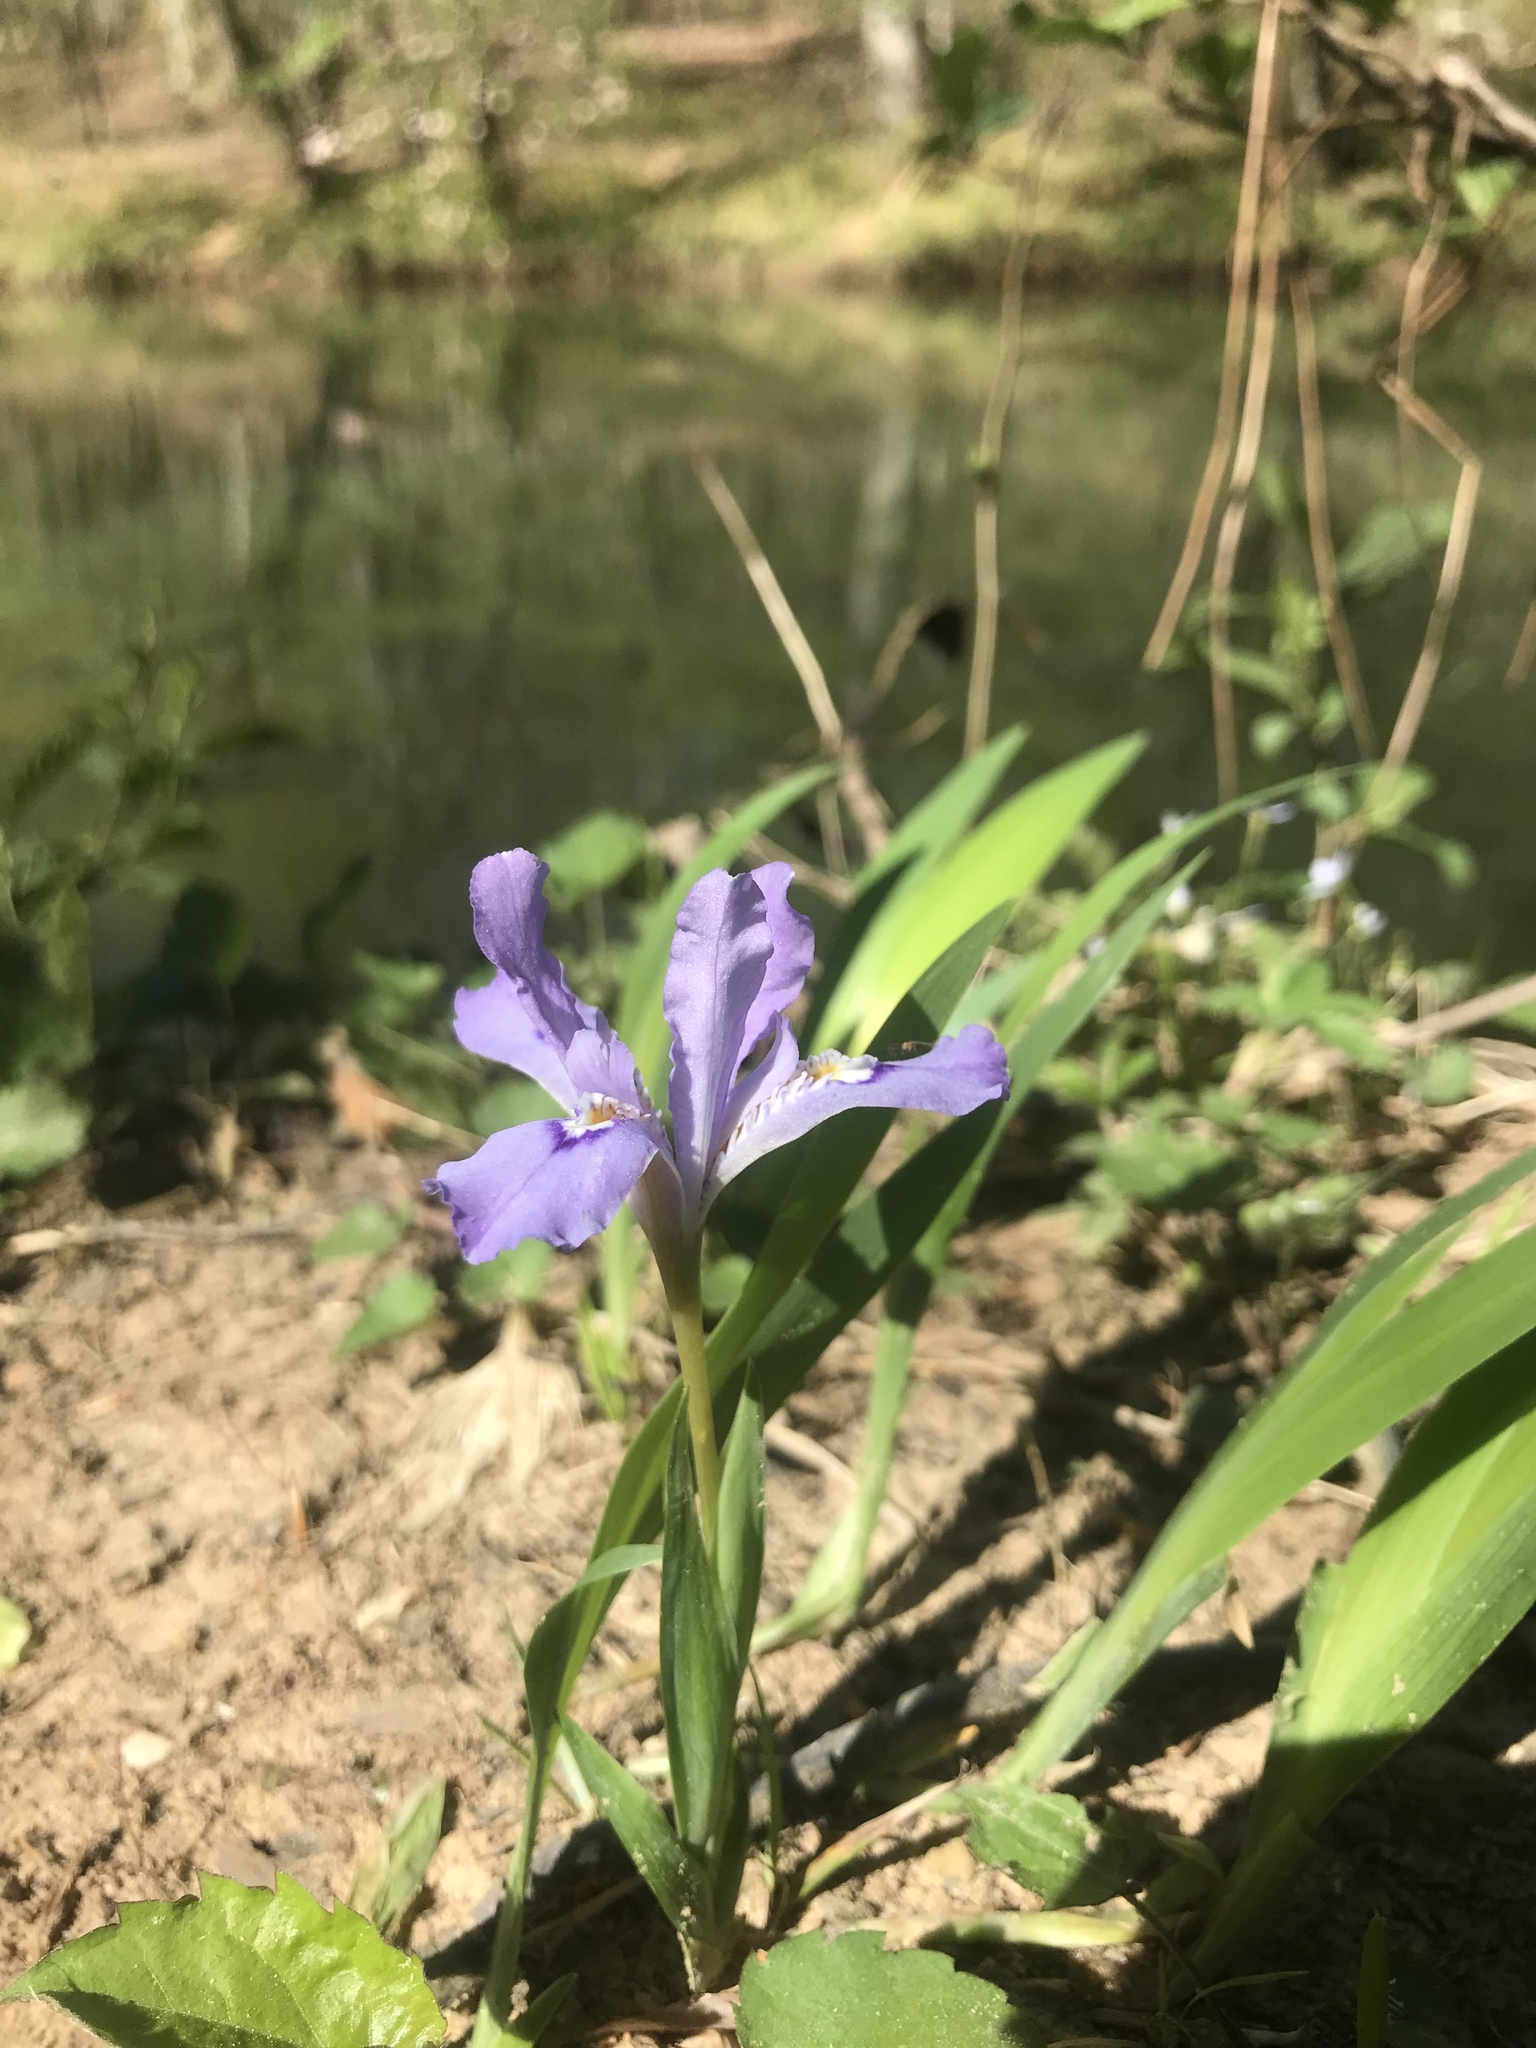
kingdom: Plantae
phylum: Tracheophyta
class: Liliopsida
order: Asparagales
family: Iridaceae
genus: Iris
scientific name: Iris cristata
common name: Crested iris
